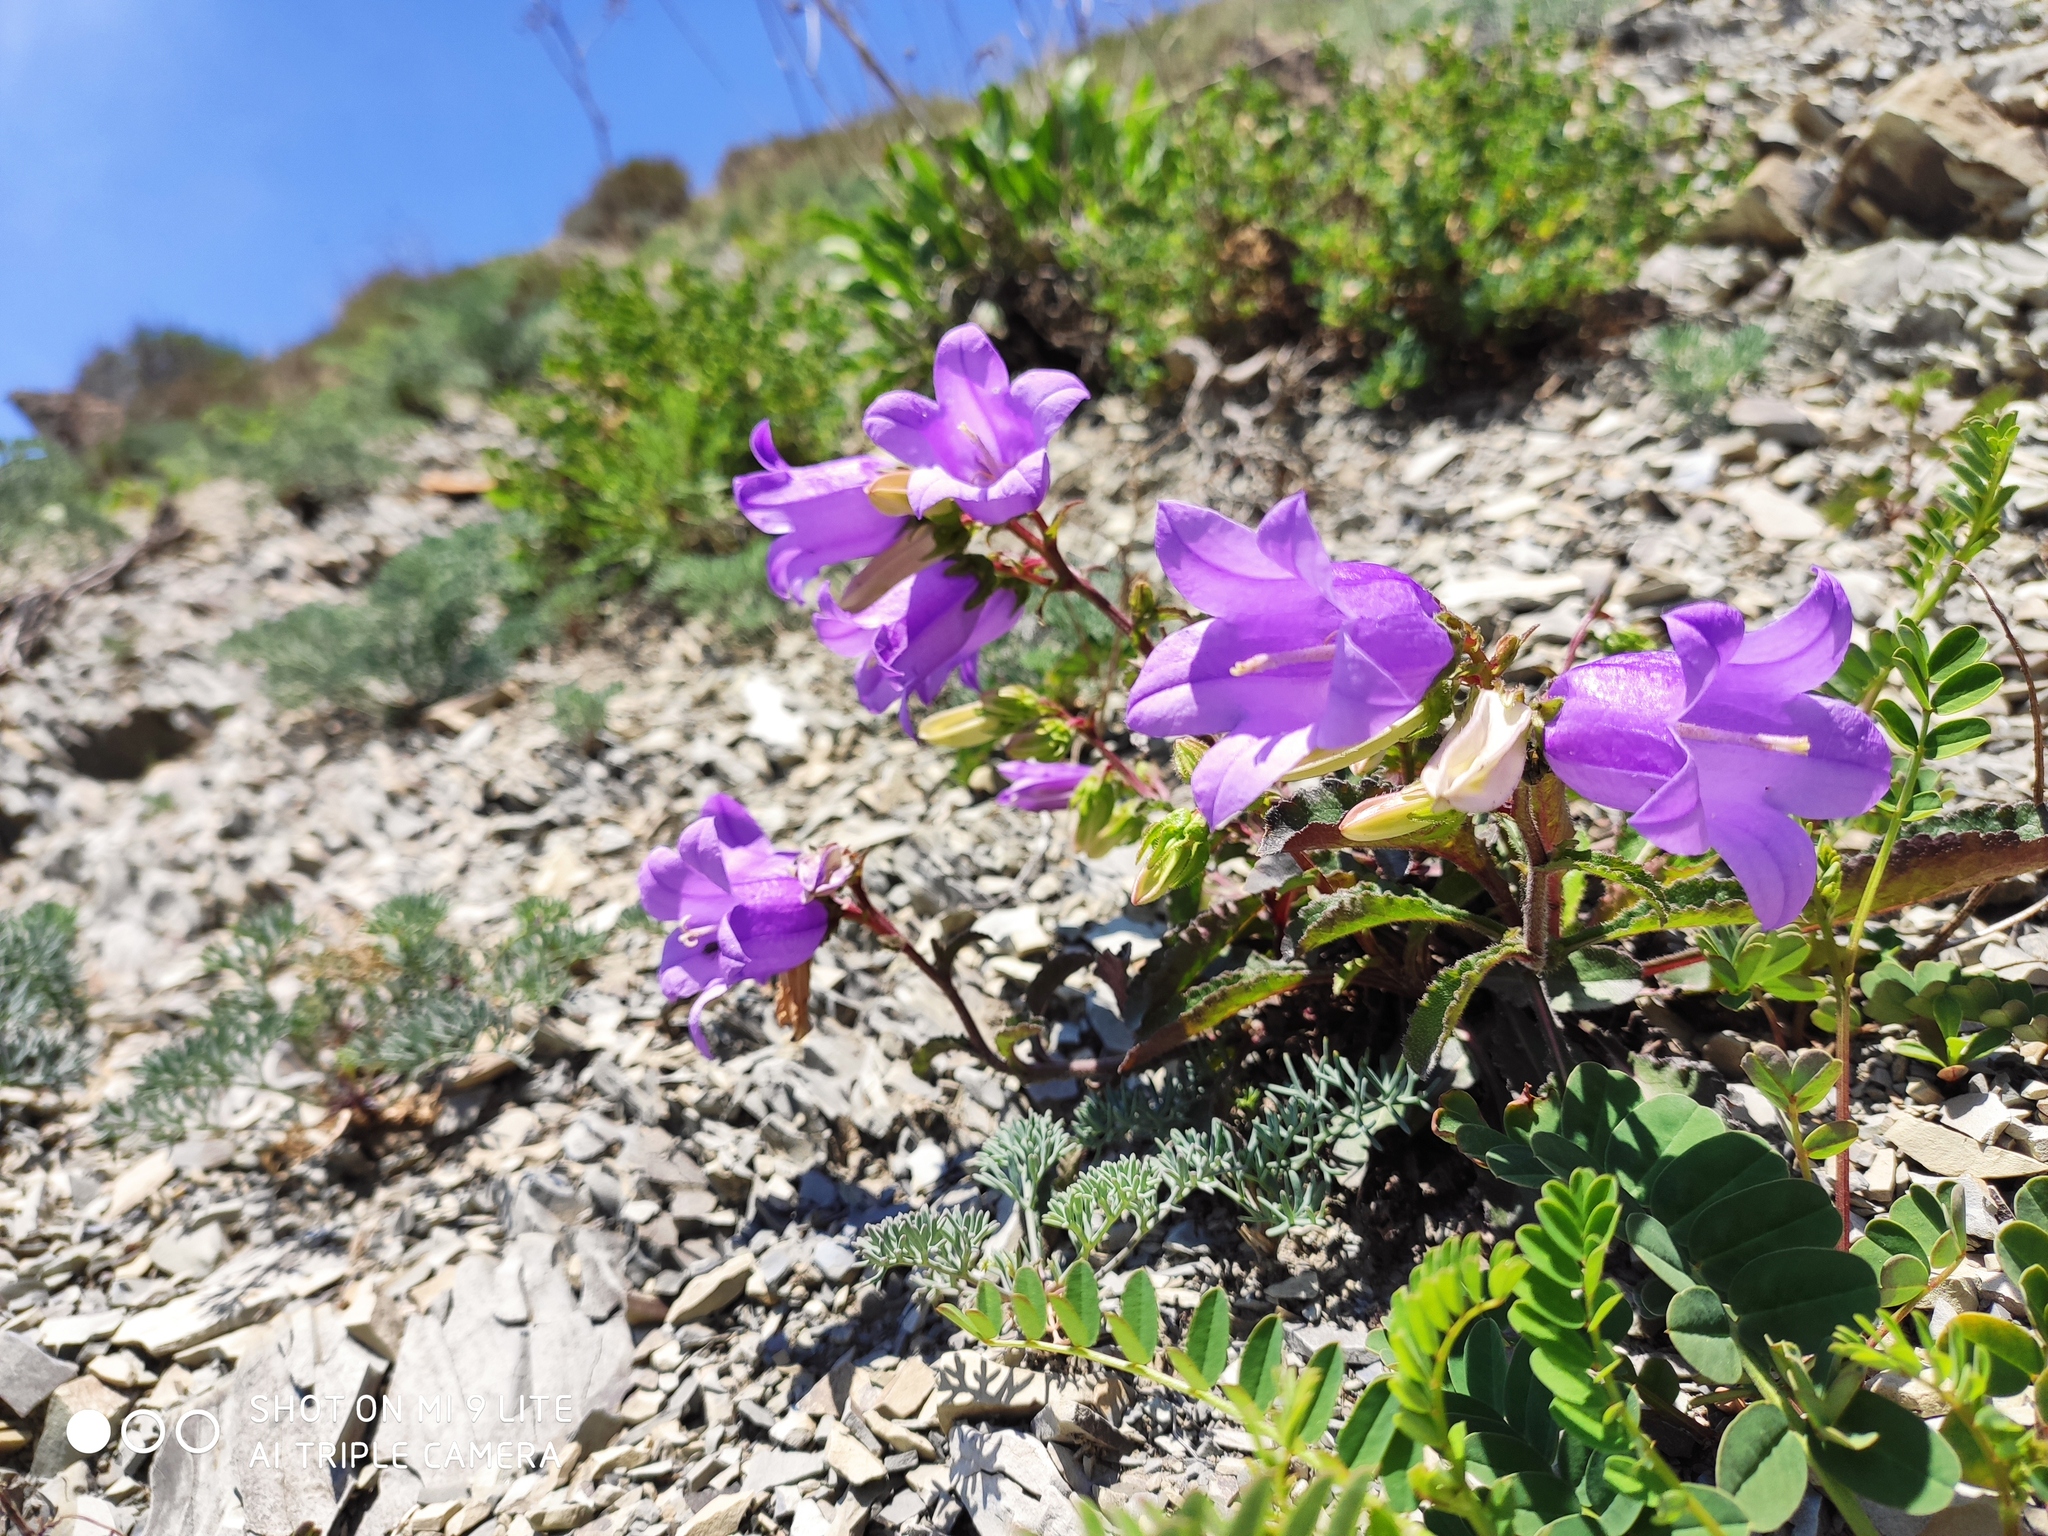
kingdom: Plantae
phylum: Tracheophyta
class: Magnoliopsida
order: Asterales
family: Campanulaceae
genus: Campanula
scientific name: Campanula komarovii
